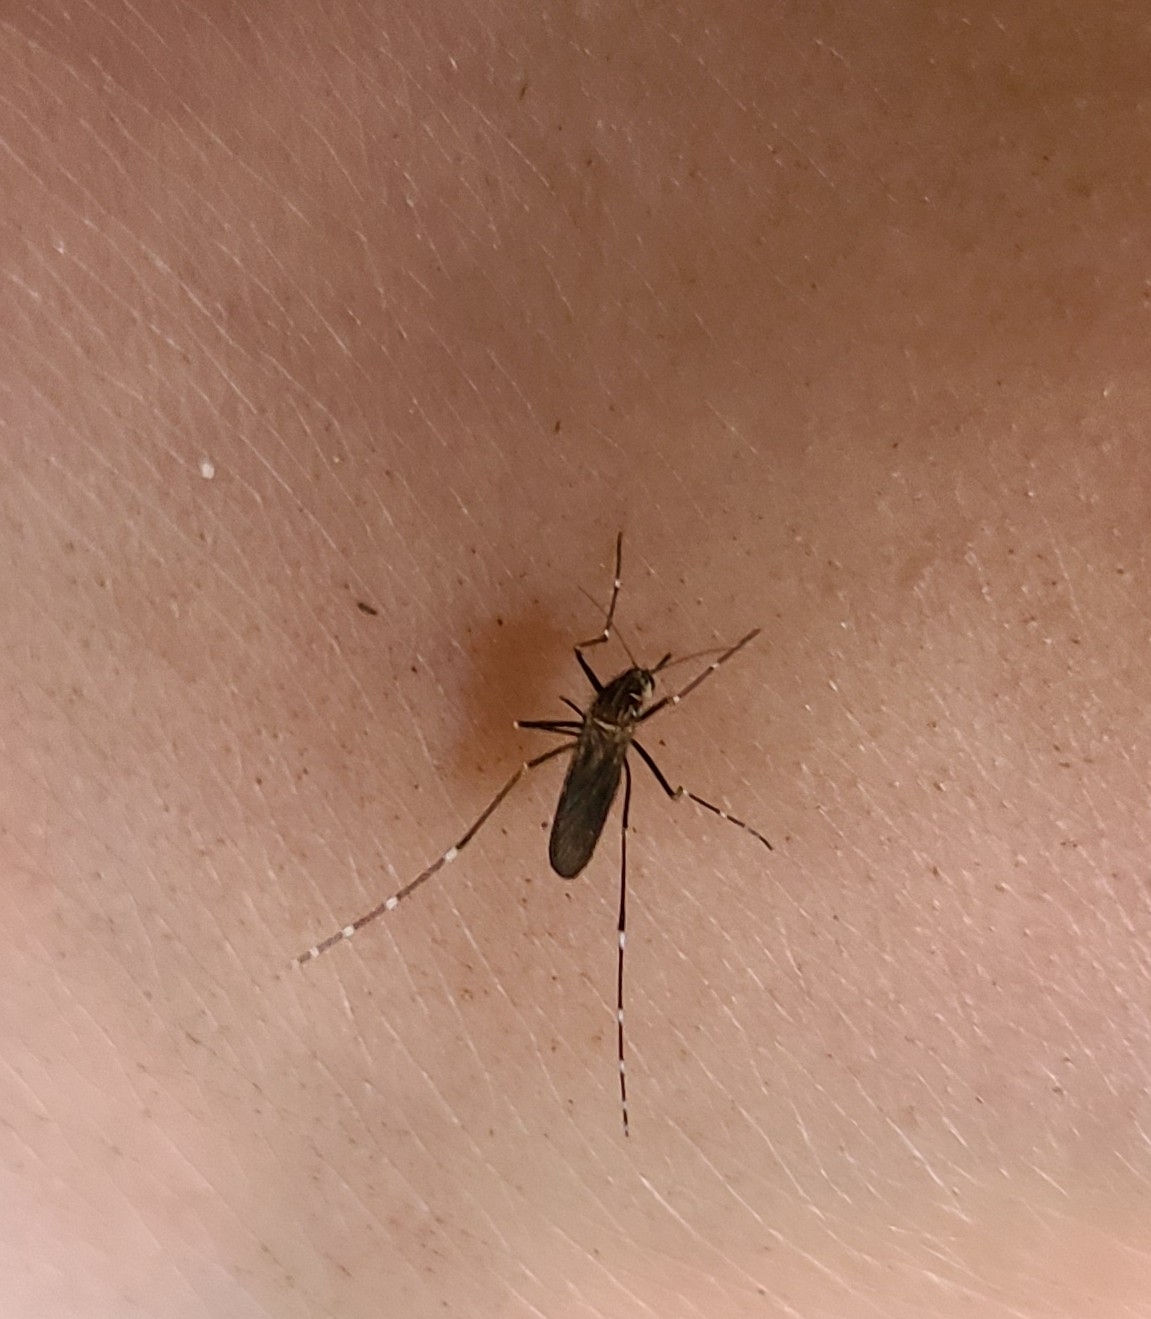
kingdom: Animalia
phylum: Arthropoda
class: Insecta
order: Diptera
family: Culicidae
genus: Aedes
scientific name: Aedes notoscriptus
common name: Australian backyard mosquito
